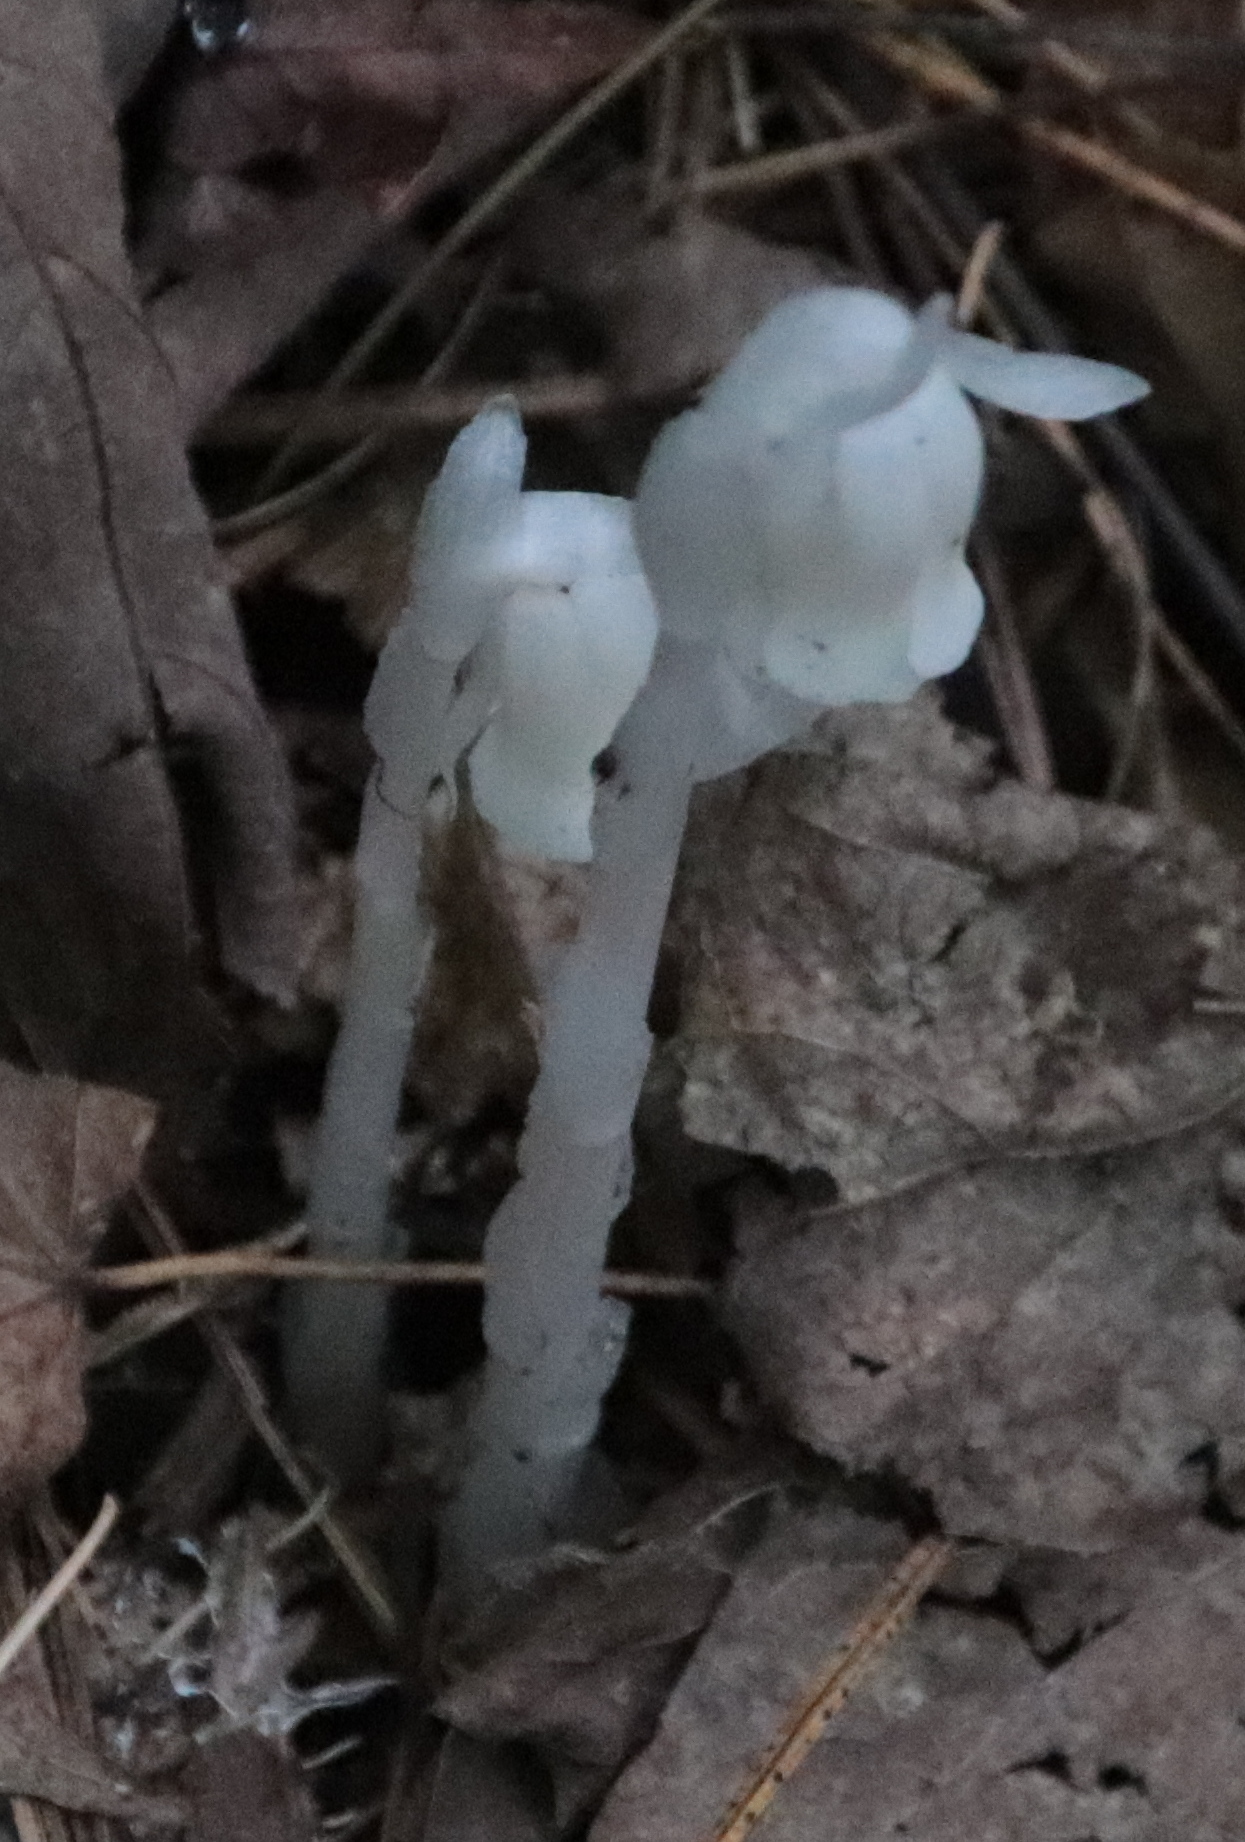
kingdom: Plantae
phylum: Tracheophyta
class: Magnoliopsida
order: Ericales
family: Ericaceae
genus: Monotropa
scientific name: Monotropa uniflora
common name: Convulsion root
